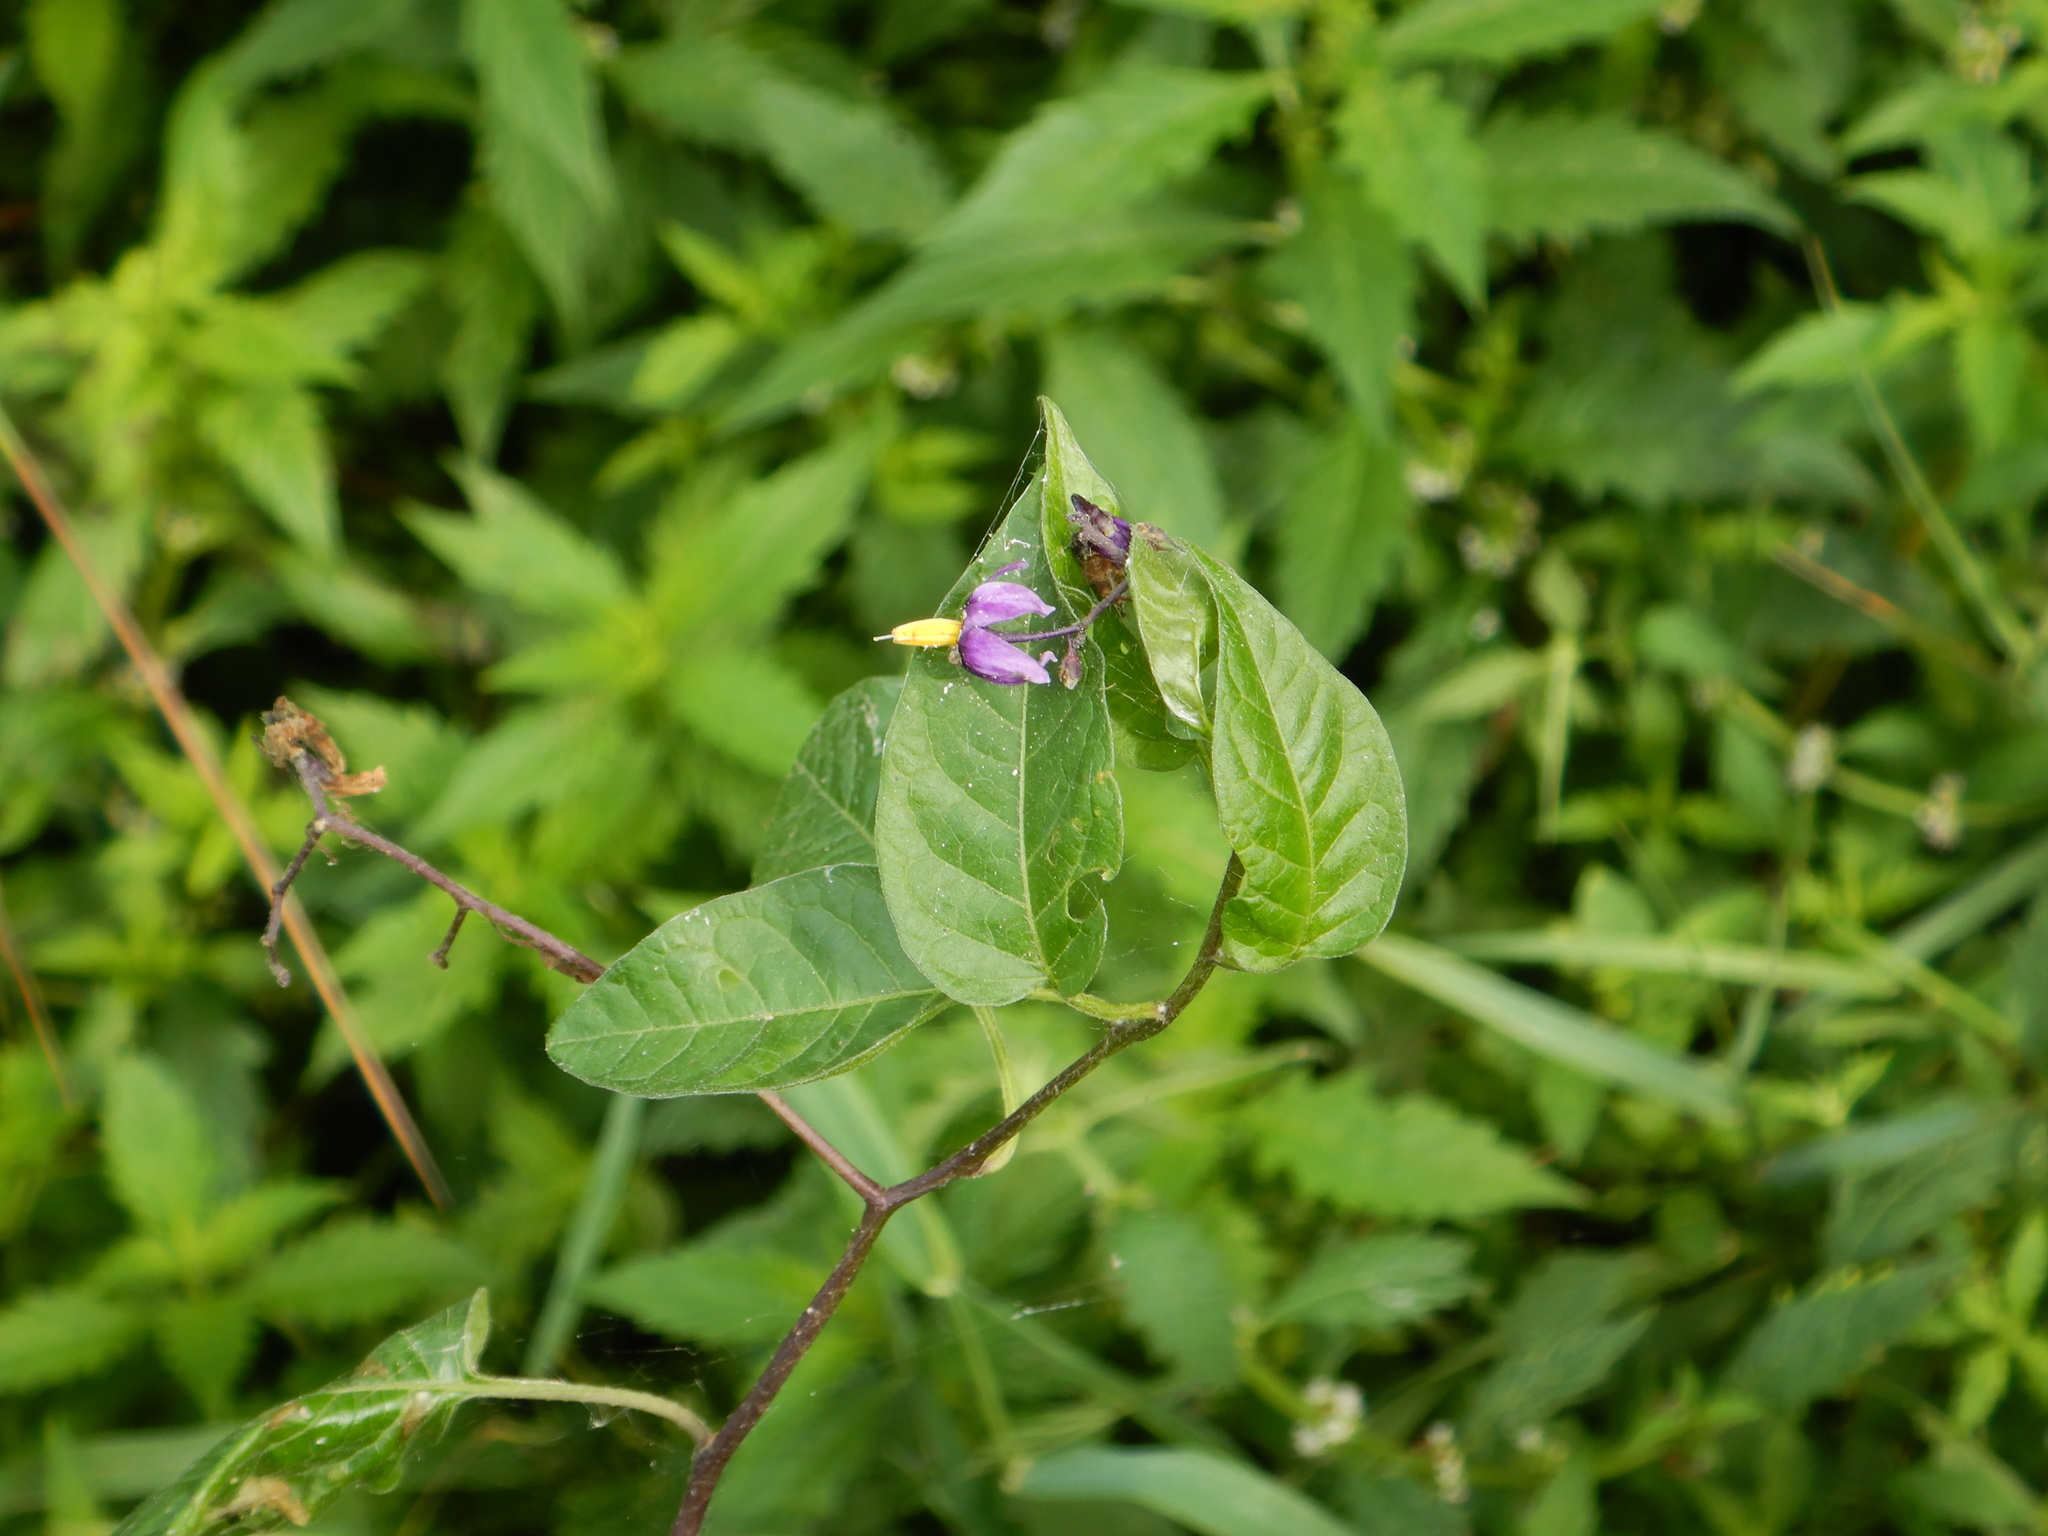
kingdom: Plantae
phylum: Tracheophyta
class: Magnoliopsida
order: Solanales
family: Solanaceae
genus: Solanum
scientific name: Solanum dulcamara
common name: Climbing nightshade
